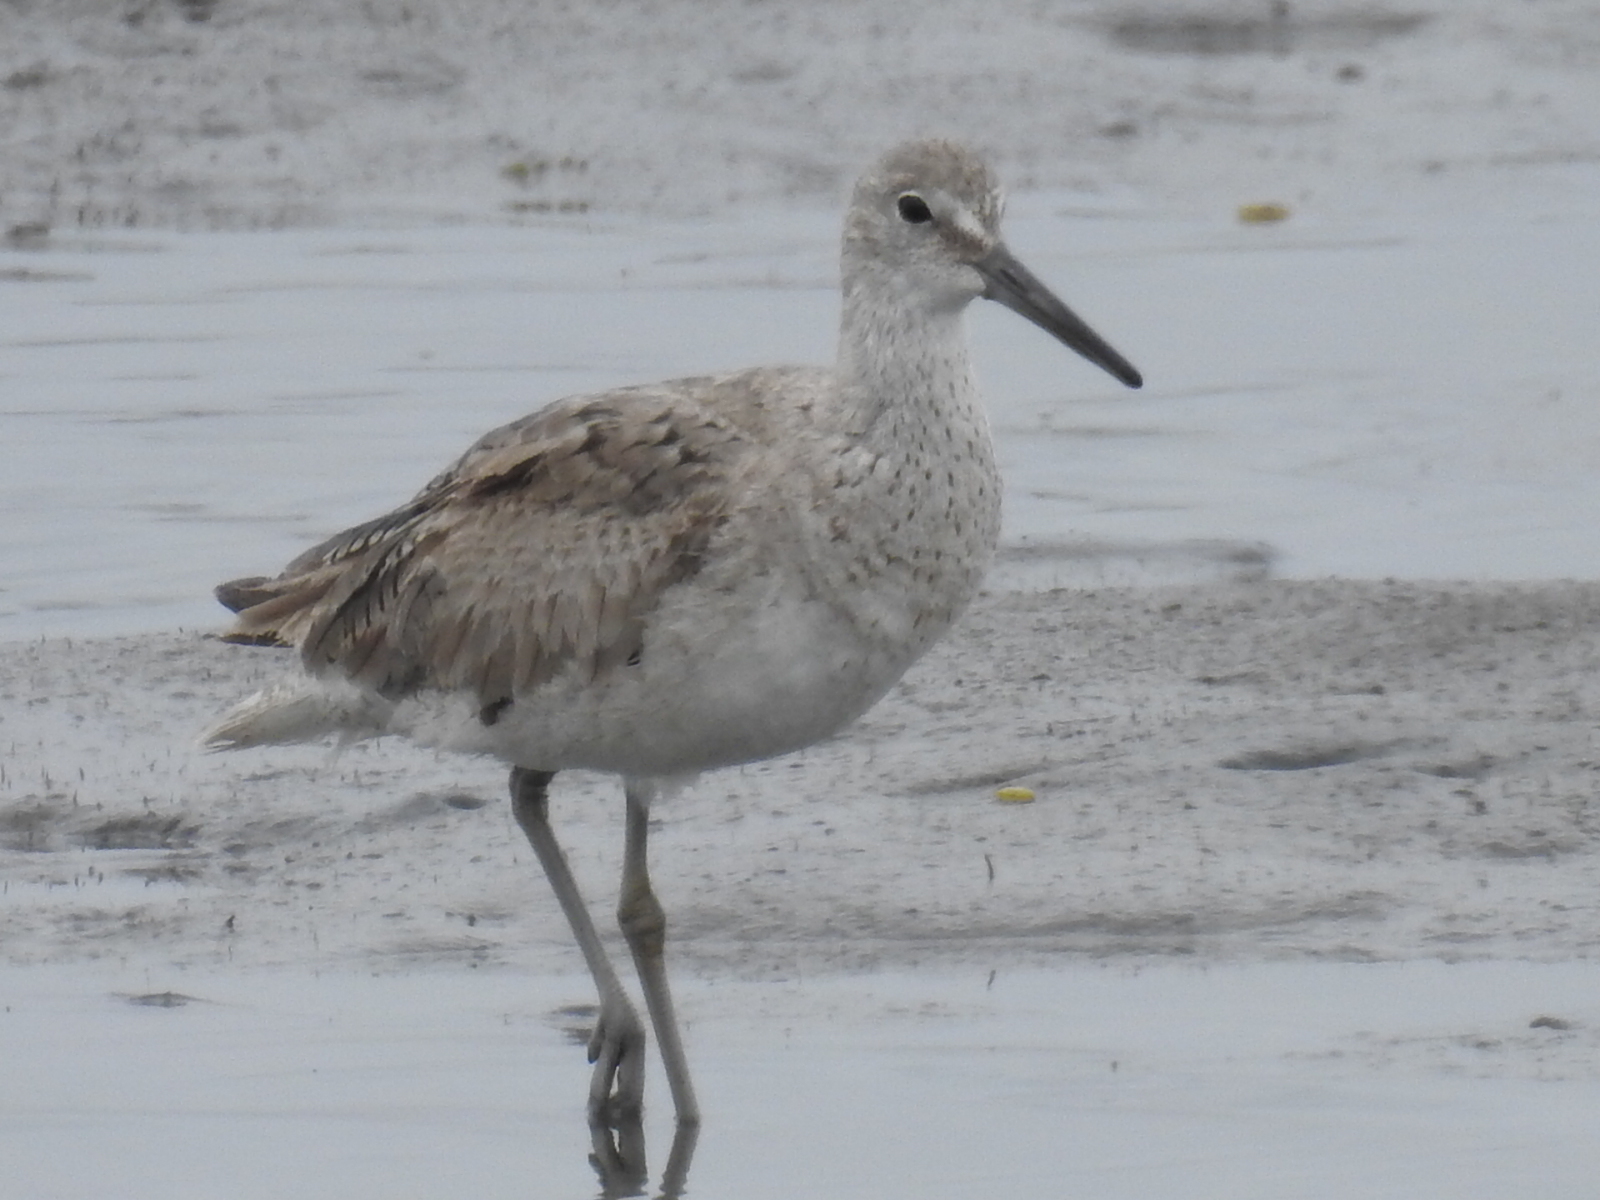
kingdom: Animalia
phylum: Chordata
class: Aves
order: Charadriiformes
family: Scolopacidae
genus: Tringa
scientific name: Tringa semipalmata
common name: Willet
